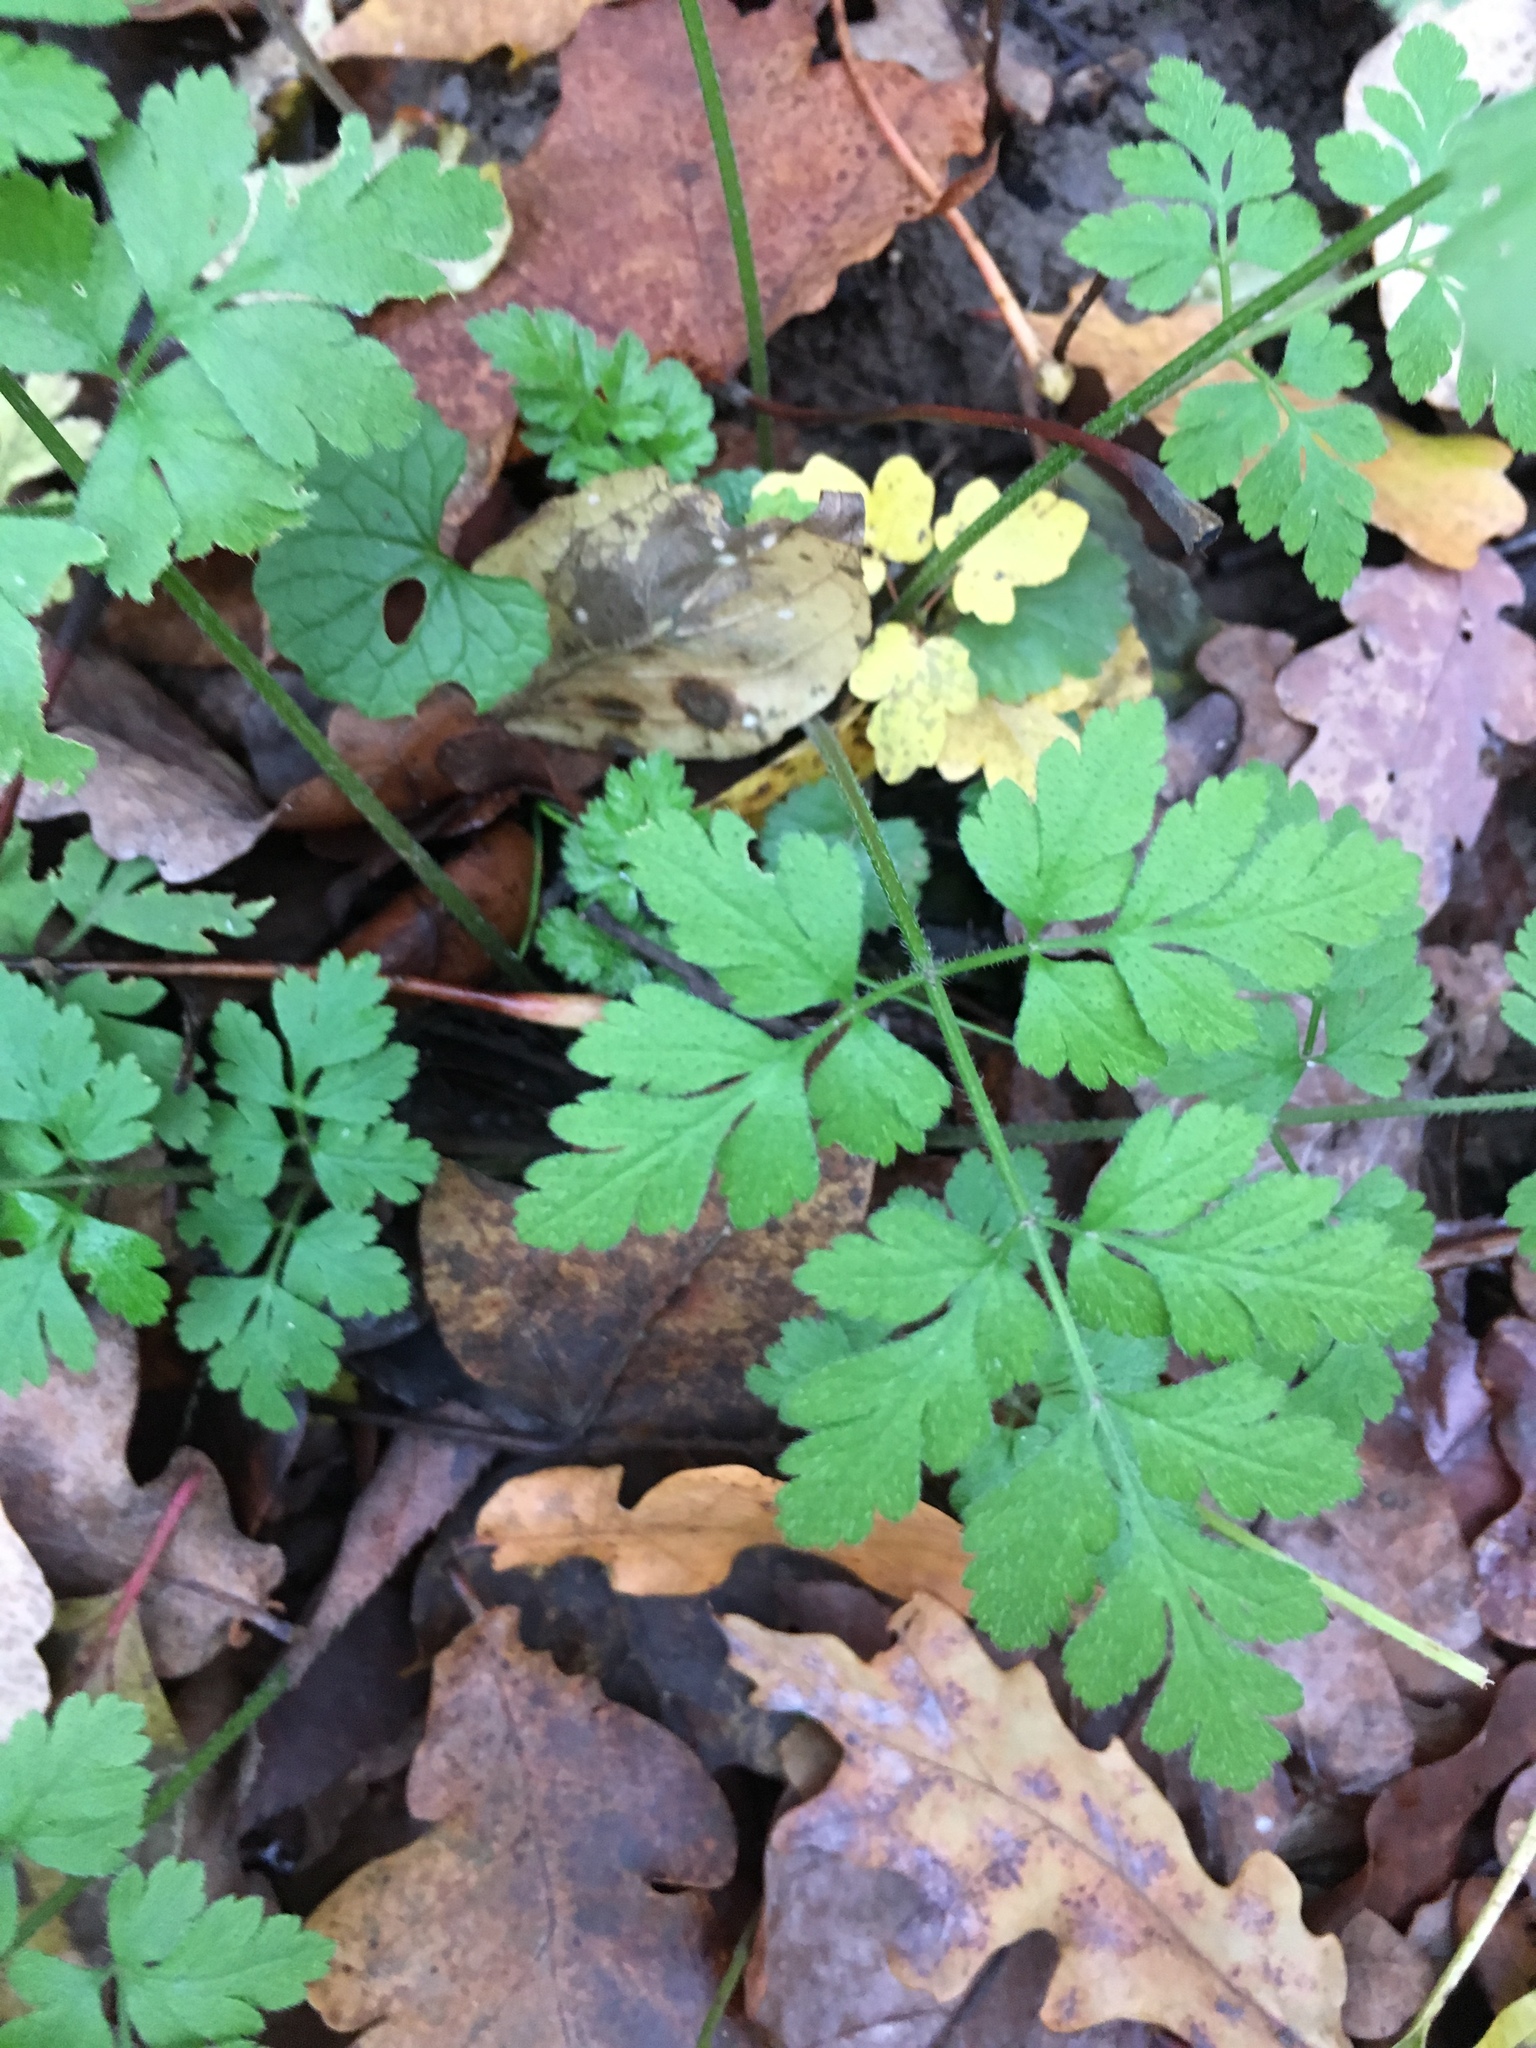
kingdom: Plantae
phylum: Tracheophyta
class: Magnoliopsida
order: Geraniales
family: Geraniaceae
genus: Geranium
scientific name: Geranium robertianum
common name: Herb-robert
